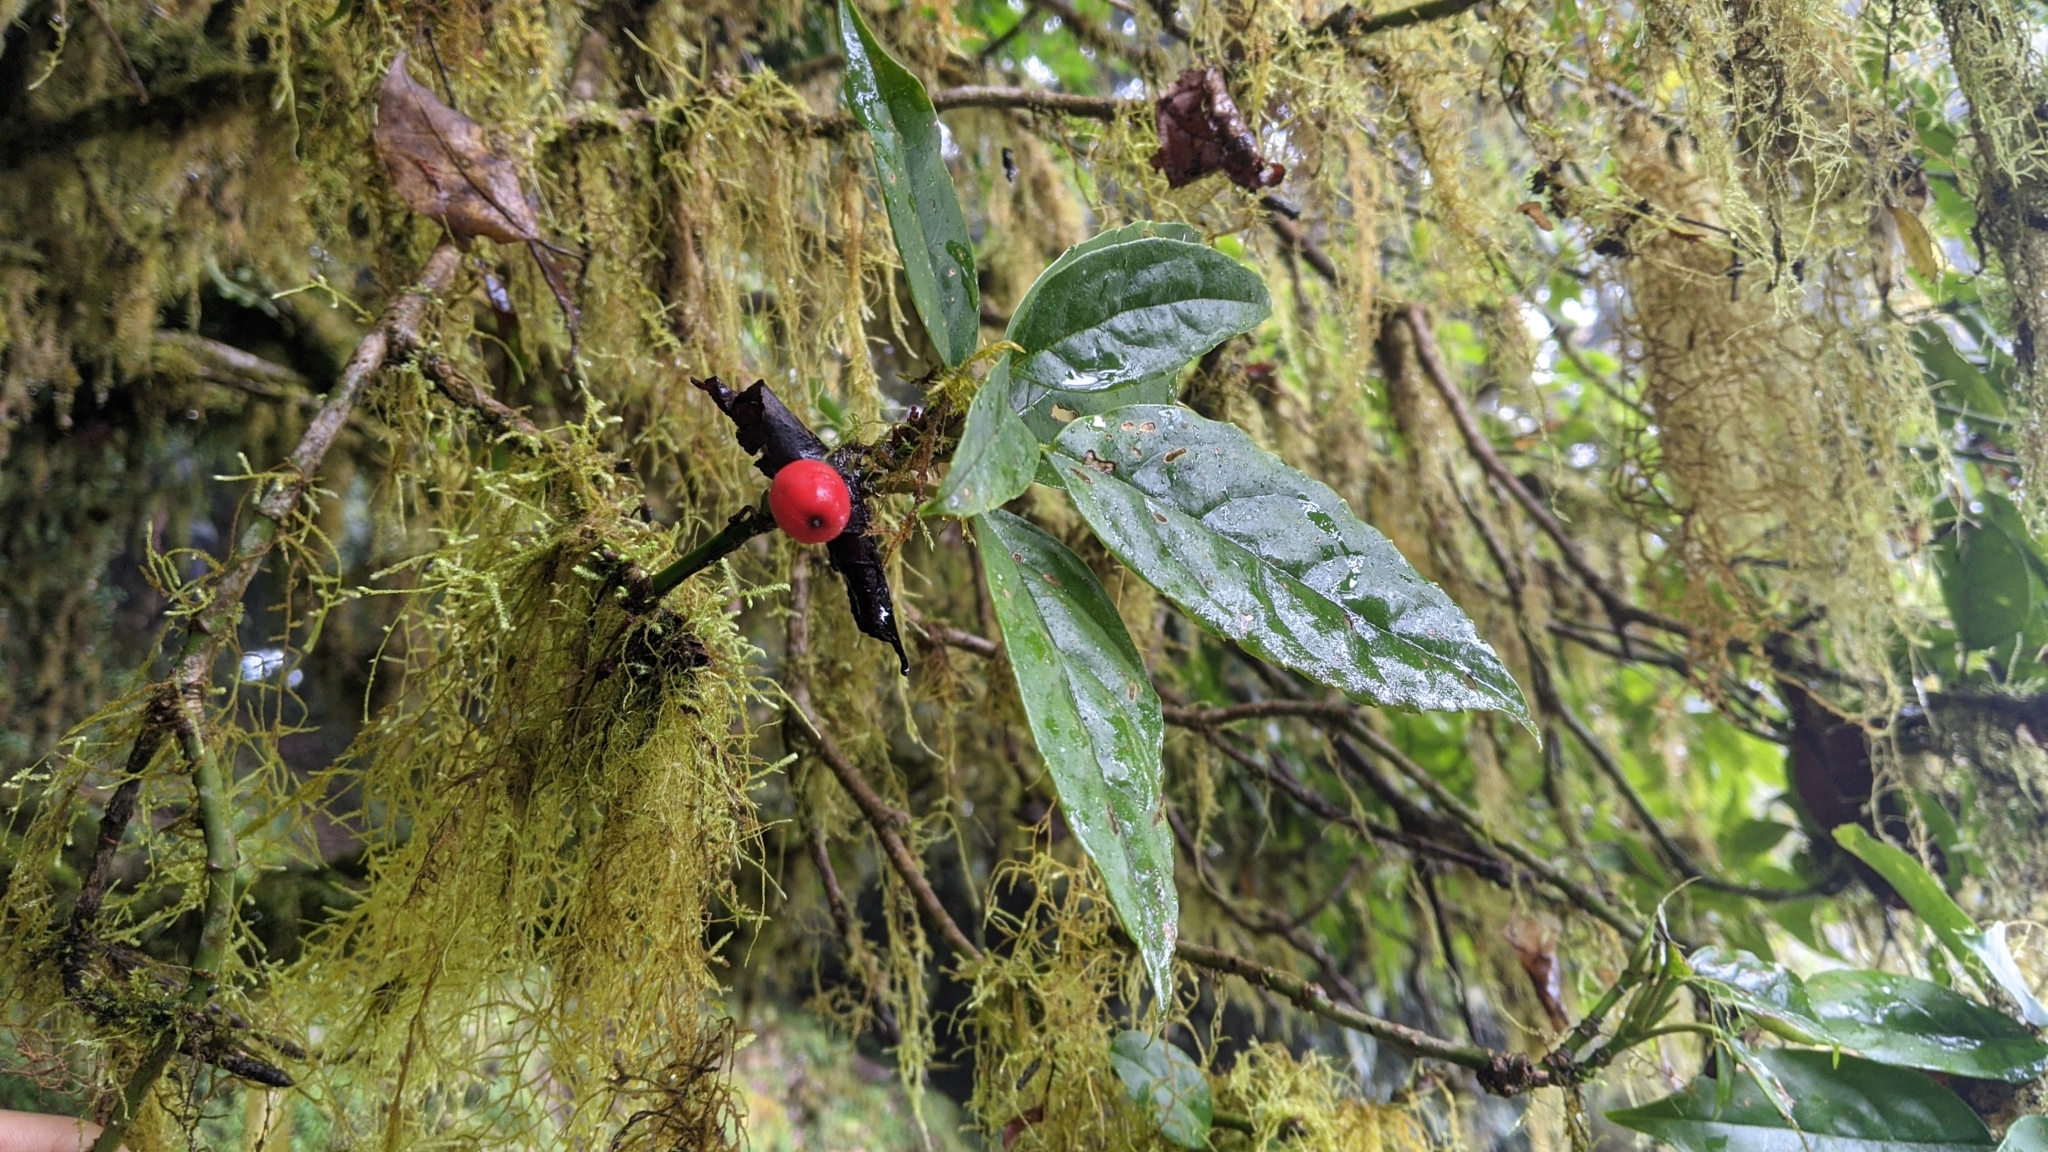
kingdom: Plantae
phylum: Tracheophyta
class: Magnoliopsida
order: Garryales
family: Garryaceae
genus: Aucuba
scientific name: Aucuba japonica
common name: Spotted-laurel
